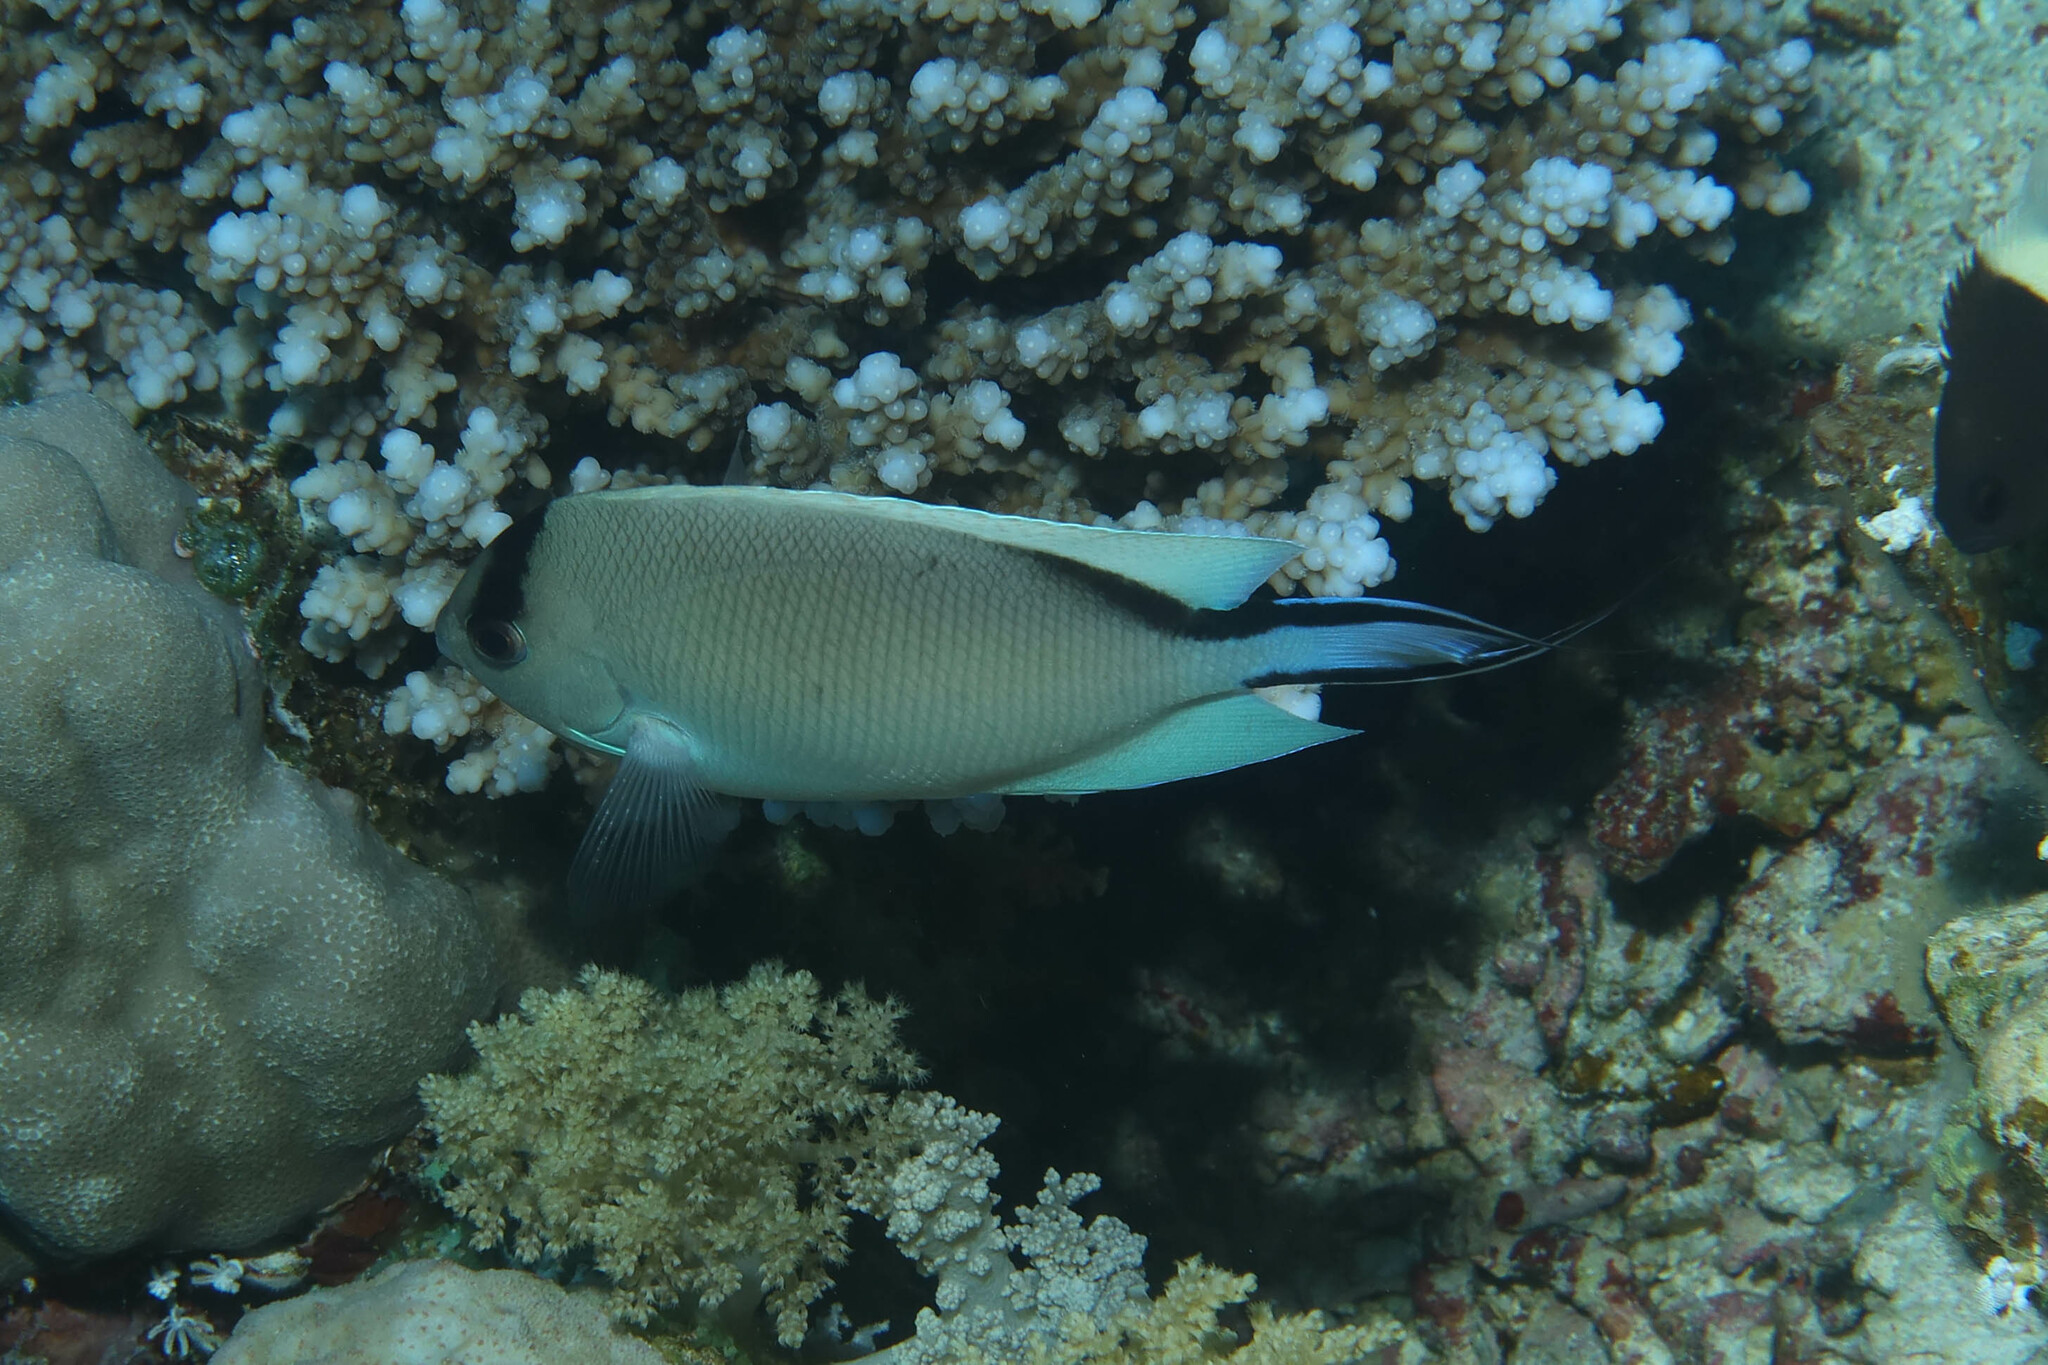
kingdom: Animalia
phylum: Chordata
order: Perciformes
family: Pomacanthidae
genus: Genicanthus
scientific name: Genicanthus caudovittatus
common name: Lyretail angelfish
